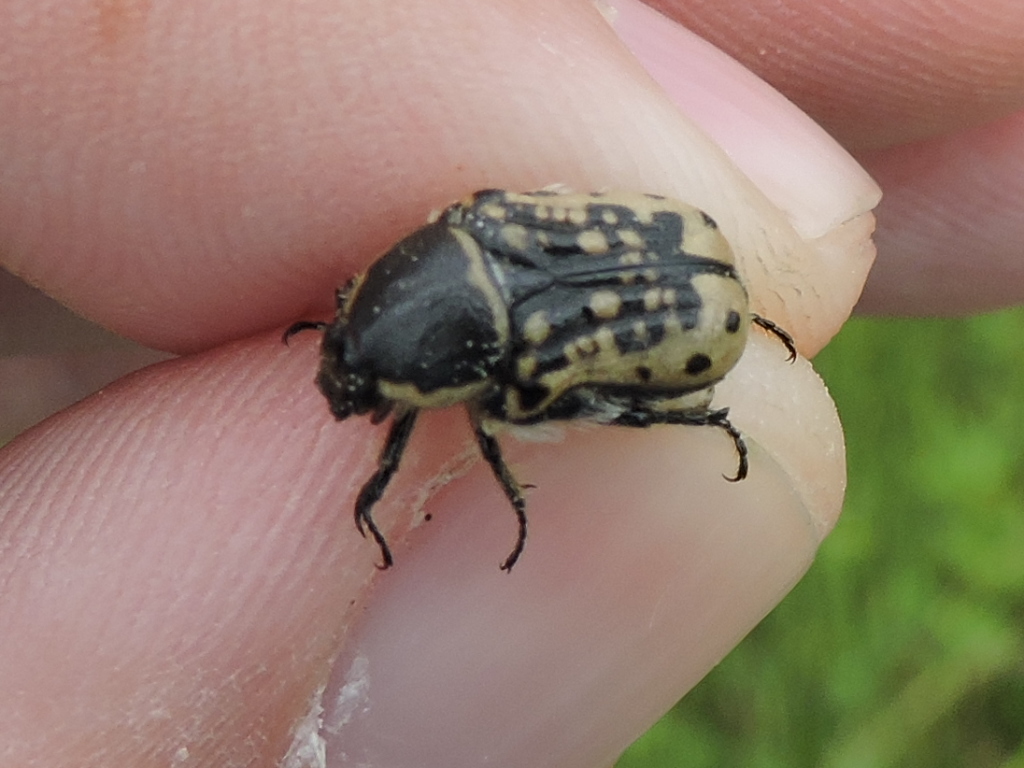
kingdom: Animalia
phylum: Arthropoda
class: Insecta
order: Coleoptera
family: Scarabaeidae
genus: Euphoria
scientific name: Euphoria kernii
